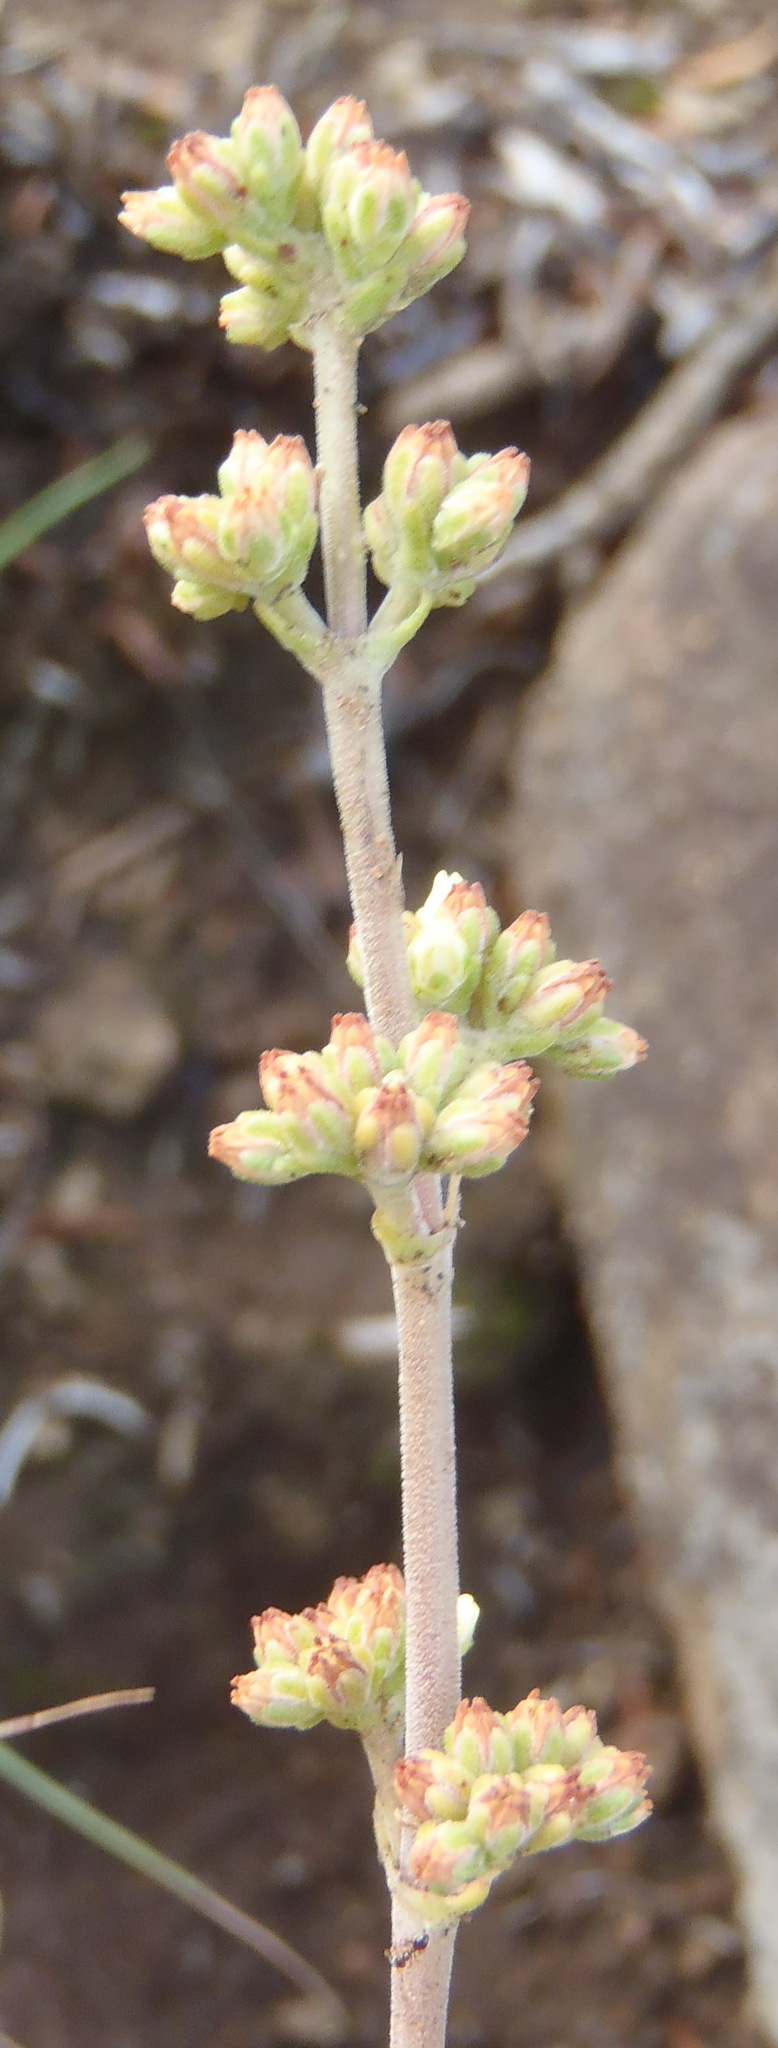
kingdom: Plantae
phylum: Tracheophyta
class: Magnoliopsida
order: Saxifragales
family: Crassulaceae
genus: Crassula
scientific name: Crassula nudicaulis
